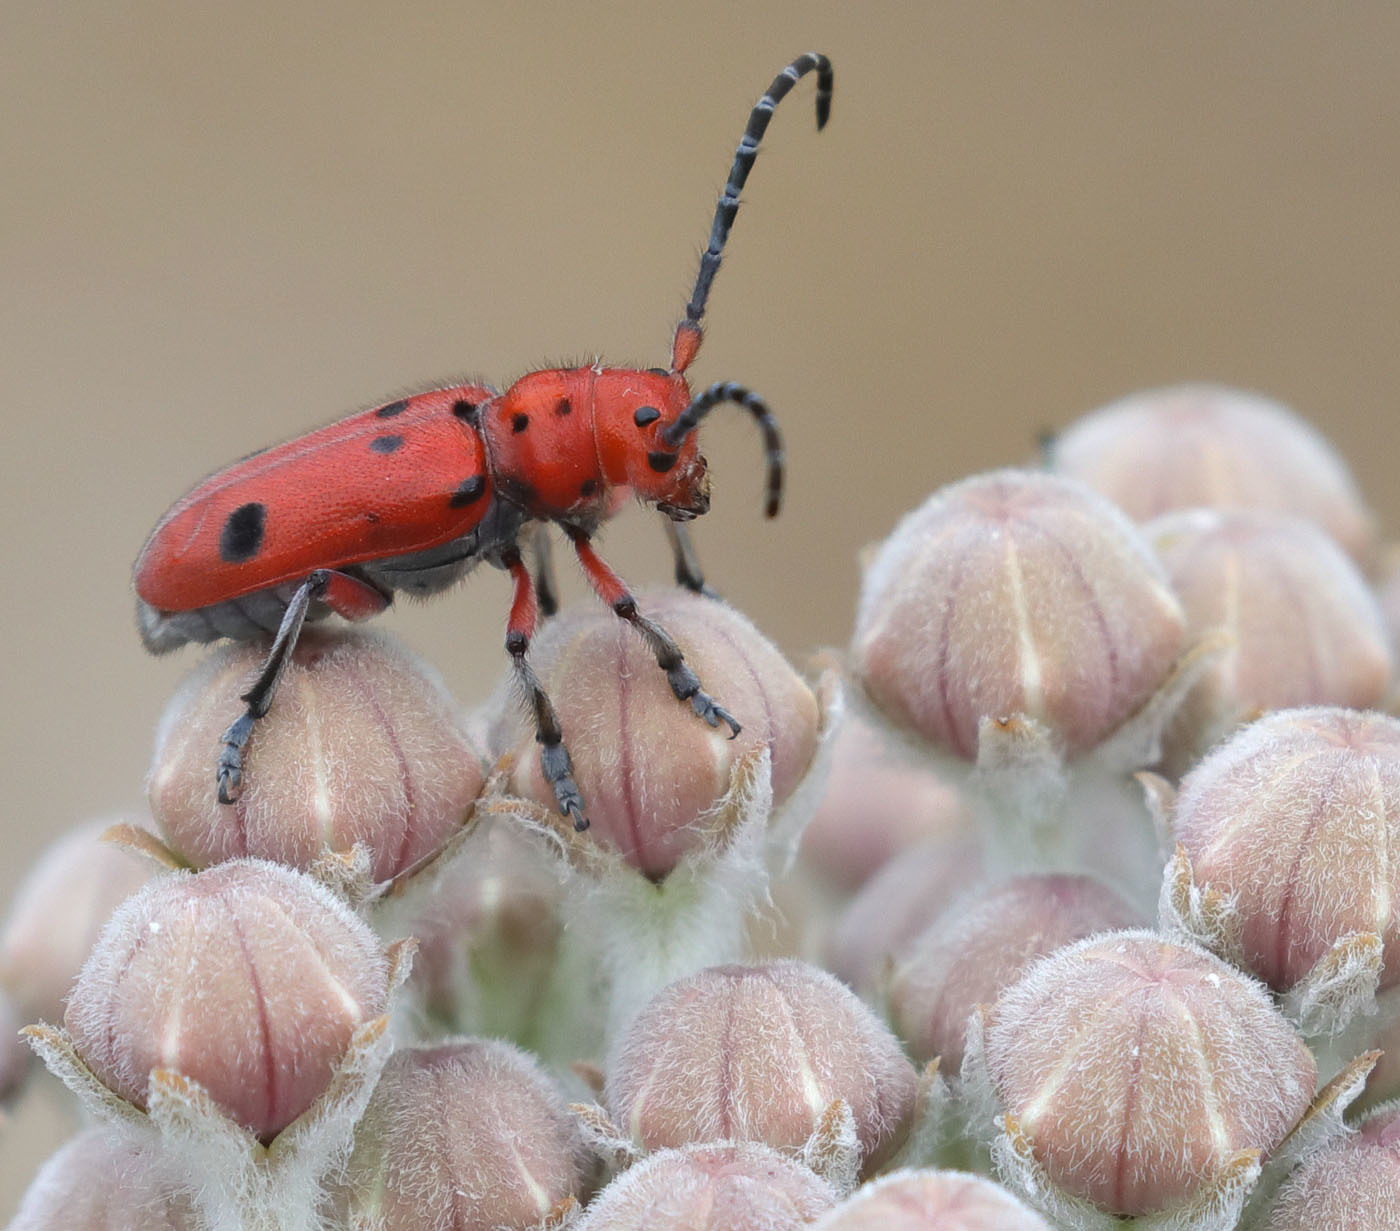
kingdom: Animalia
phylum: Arthropoda
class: Insecta
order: Coleoptera
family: Cerambycidae
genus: Tetraopes
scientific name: Tetraopes basalis
